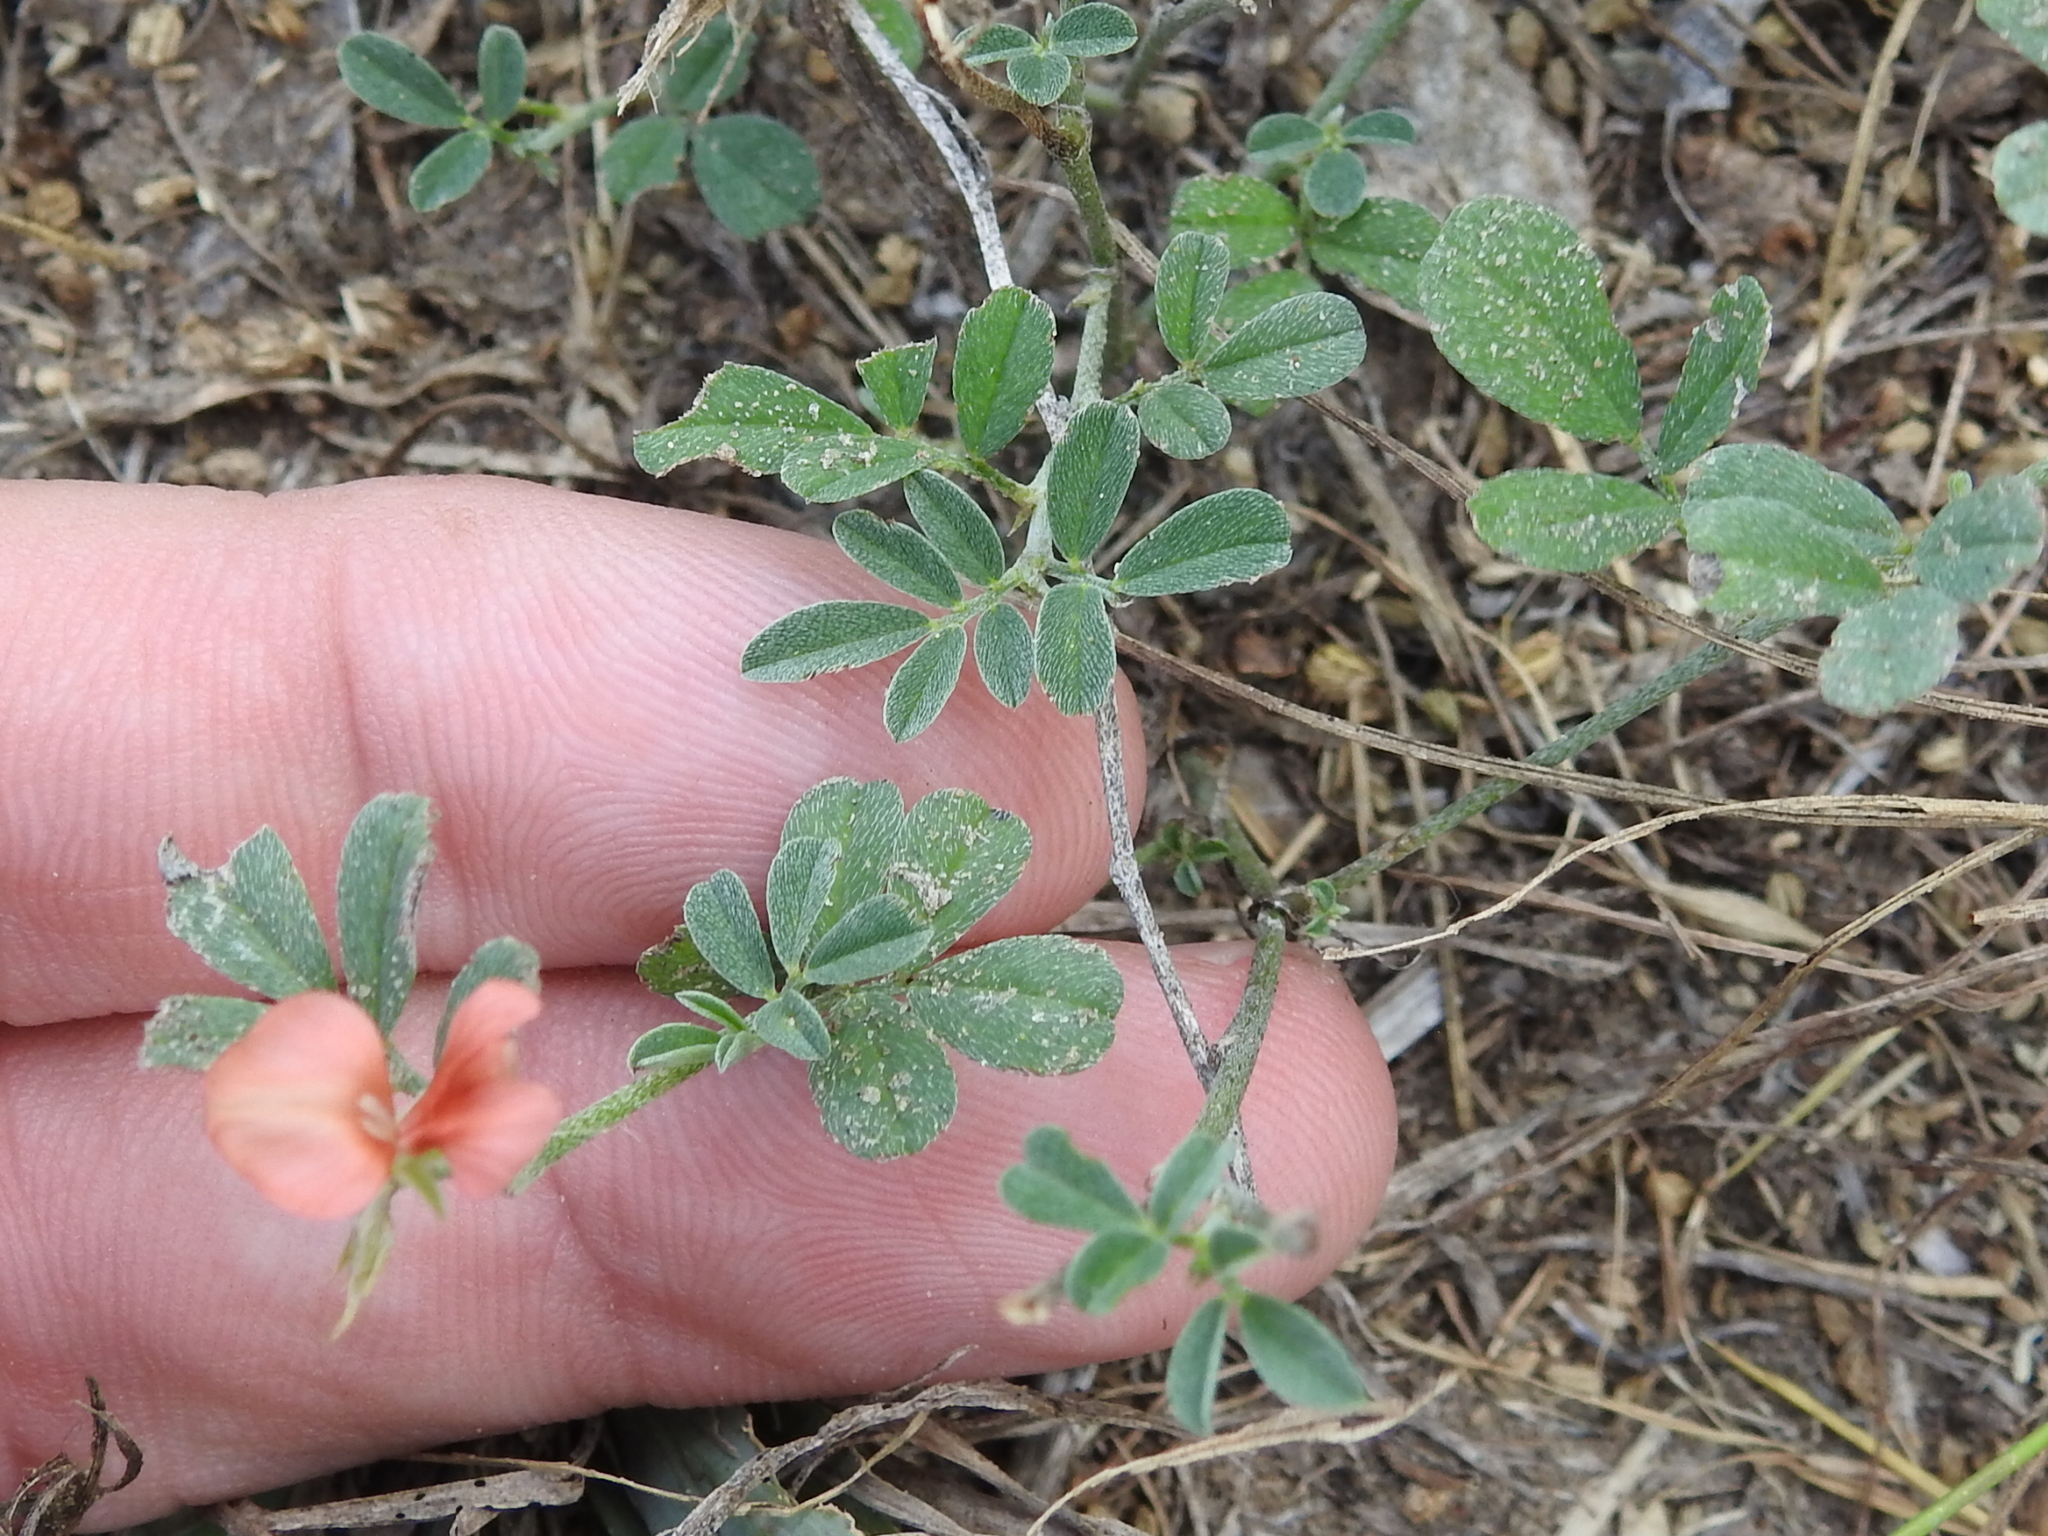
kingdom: Plantae
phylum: Tracheophyta
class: Magnoliopsida
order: Fabales
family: Fabaceae
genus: Indigofera
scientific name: Indigofera miniata
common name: Coast indigo
